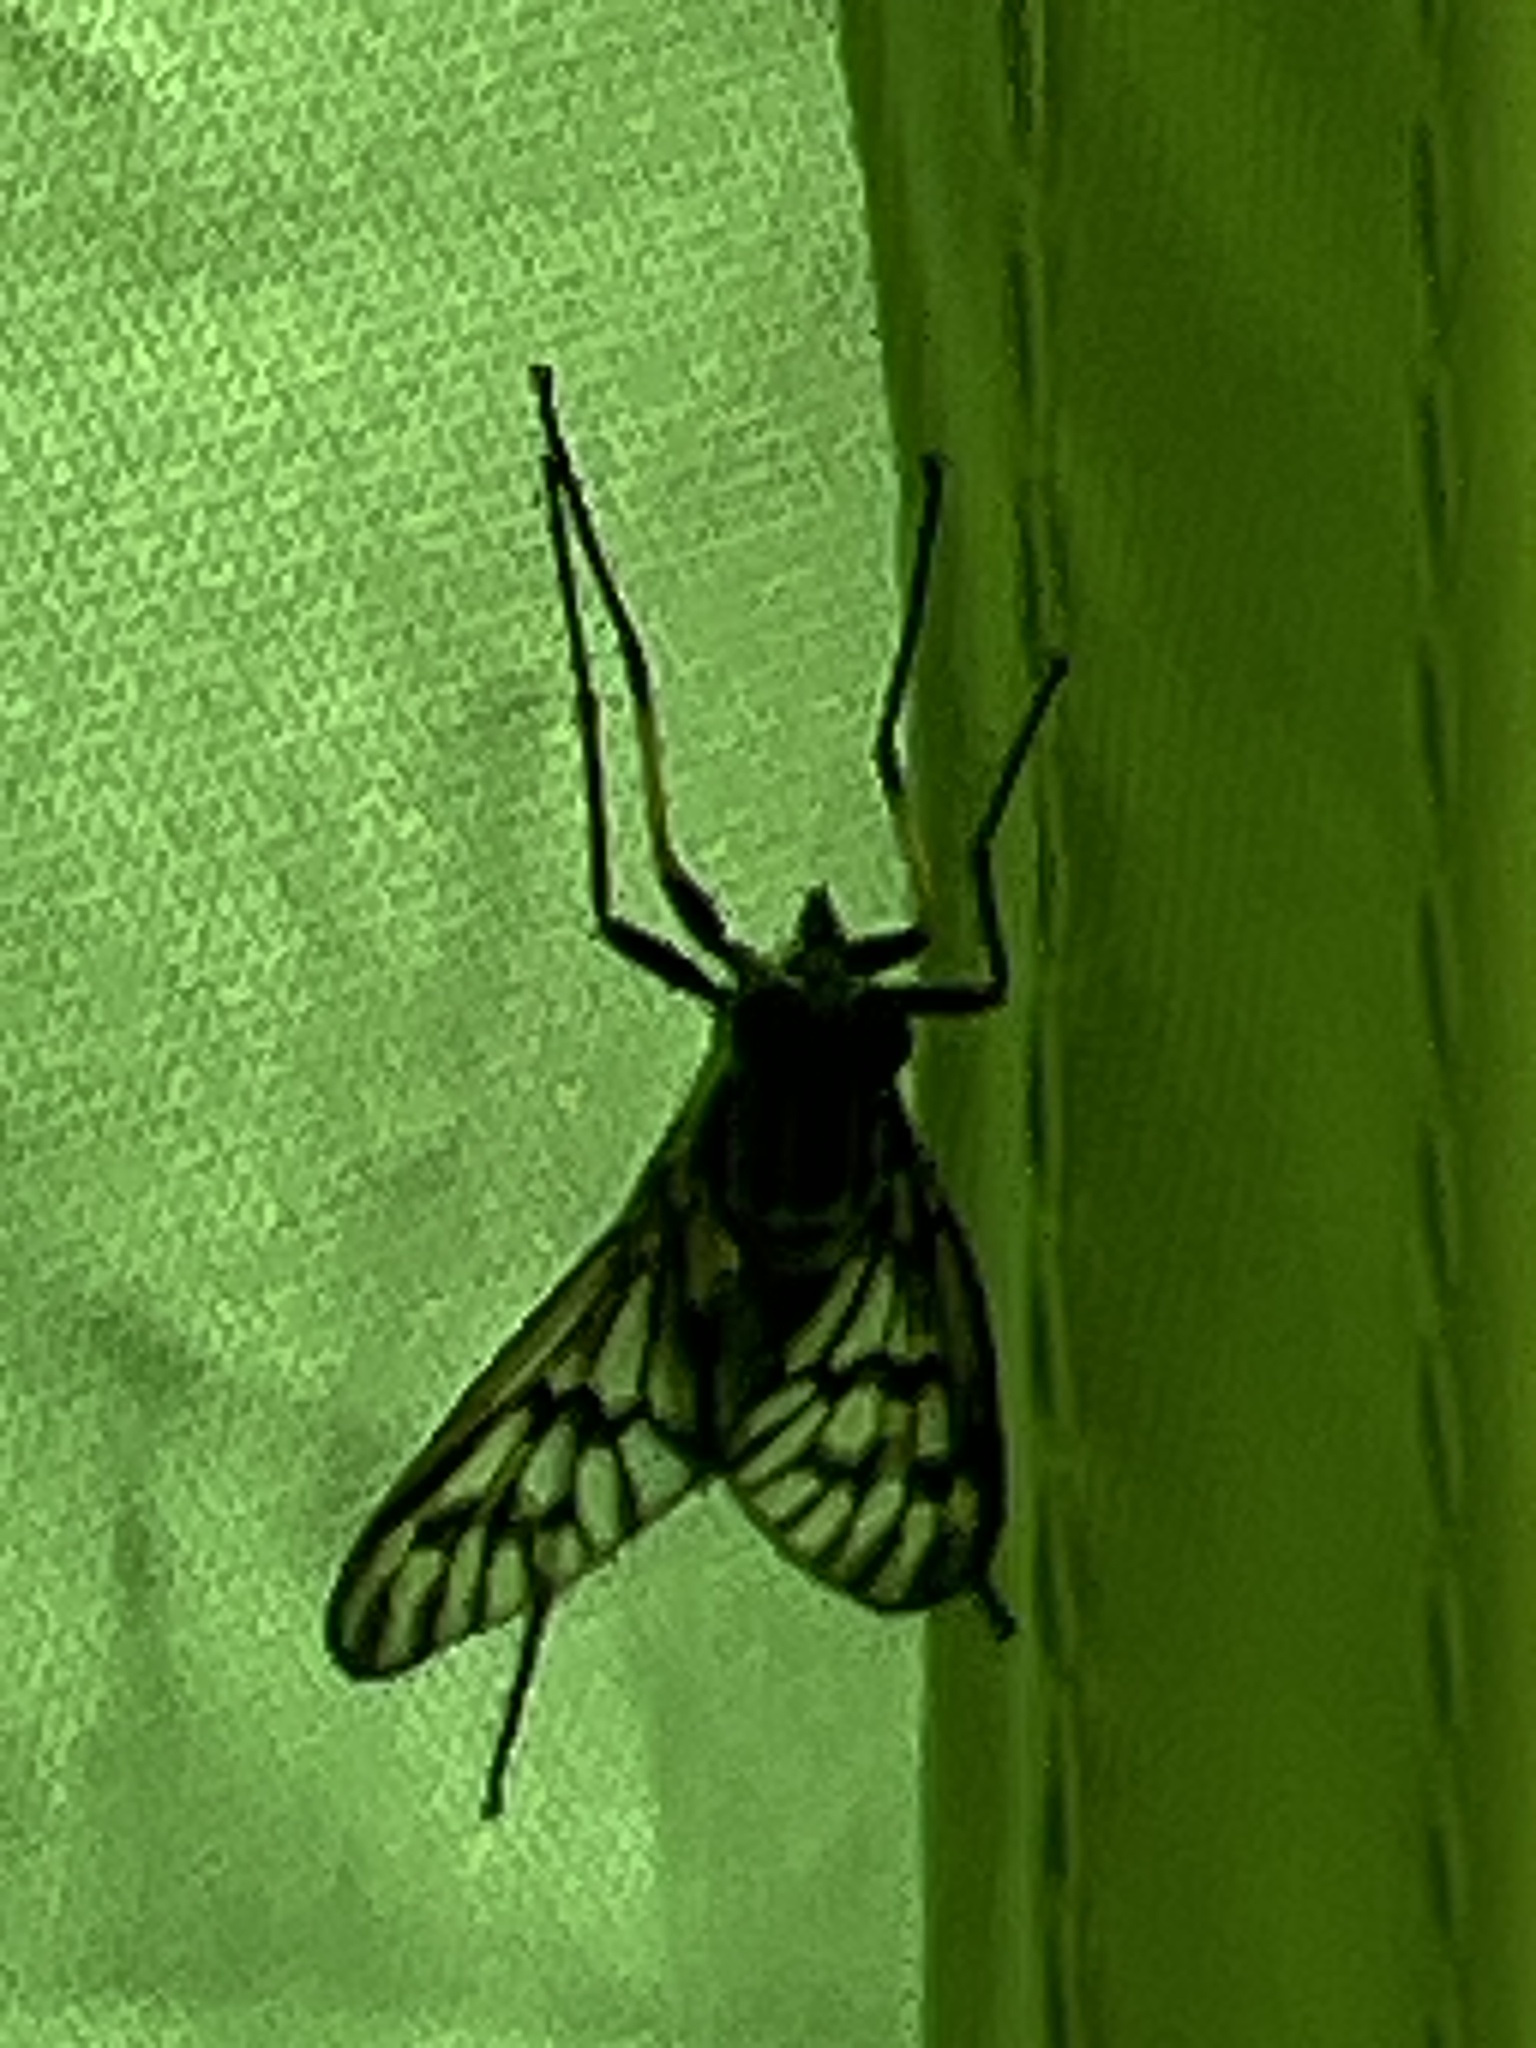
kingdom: Animalia
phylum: Arthropoda
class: Insecta
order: Diptera
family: Rhagionidae
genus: Rhagio
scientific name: Rhagio mystaceus
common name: Common snipe fly
